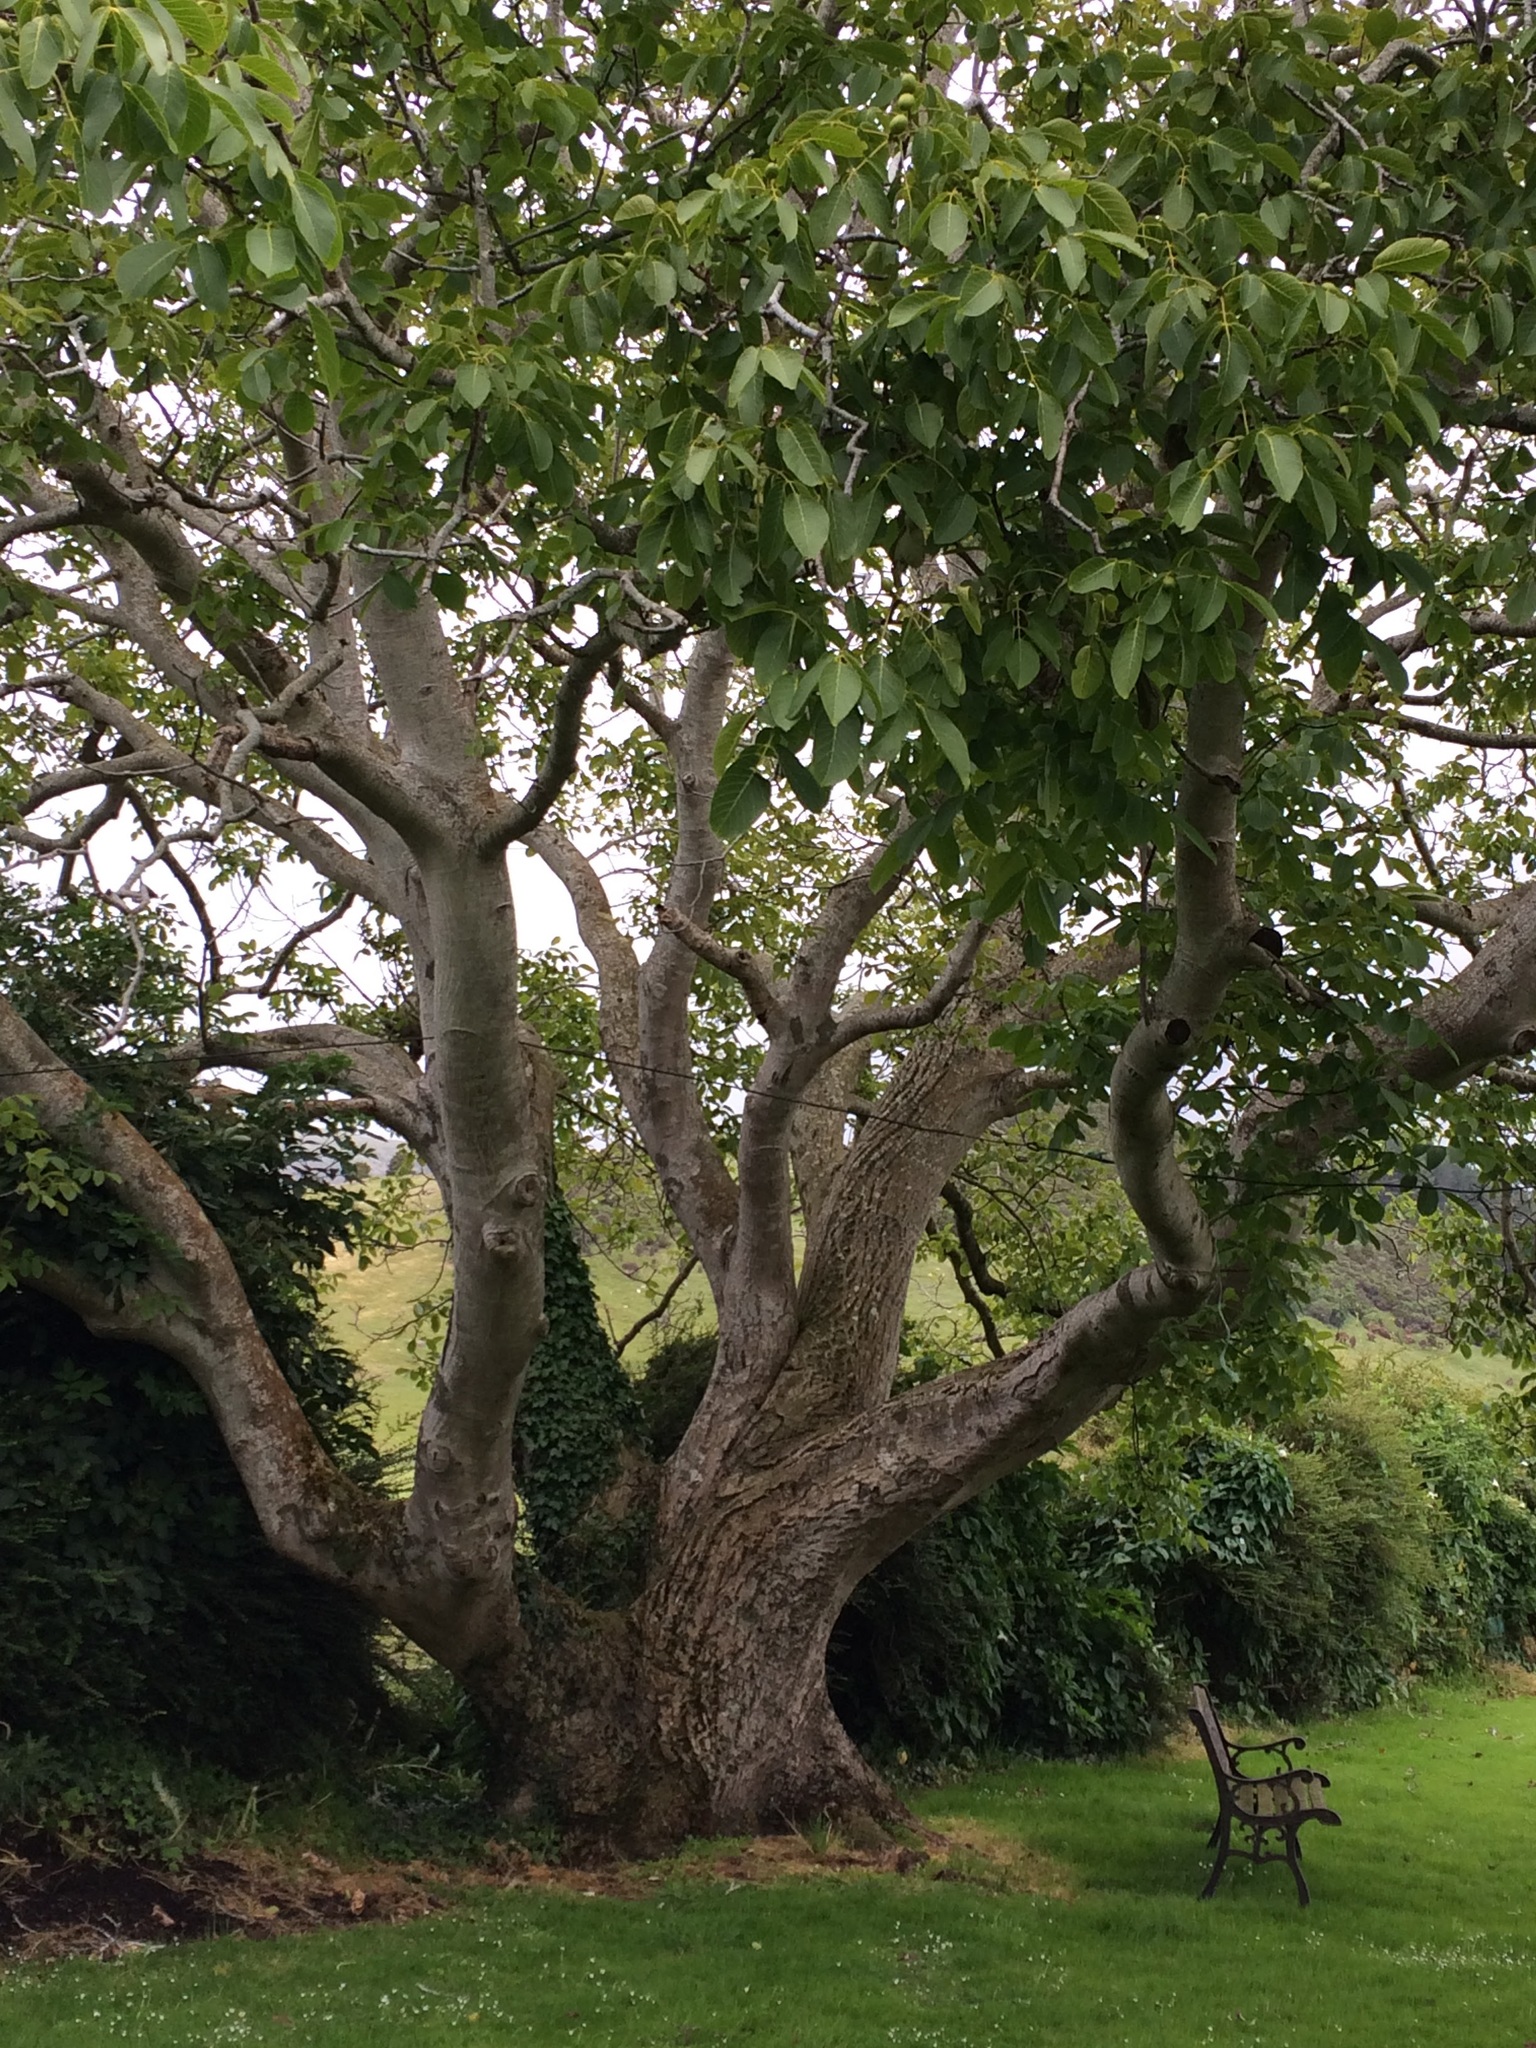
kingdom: Plantae
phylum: Tracheophyta
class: Magnoliopsida
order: Fagales
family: Juglandaceae
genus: Juglans
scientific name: Juglans regia
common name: Walnut
